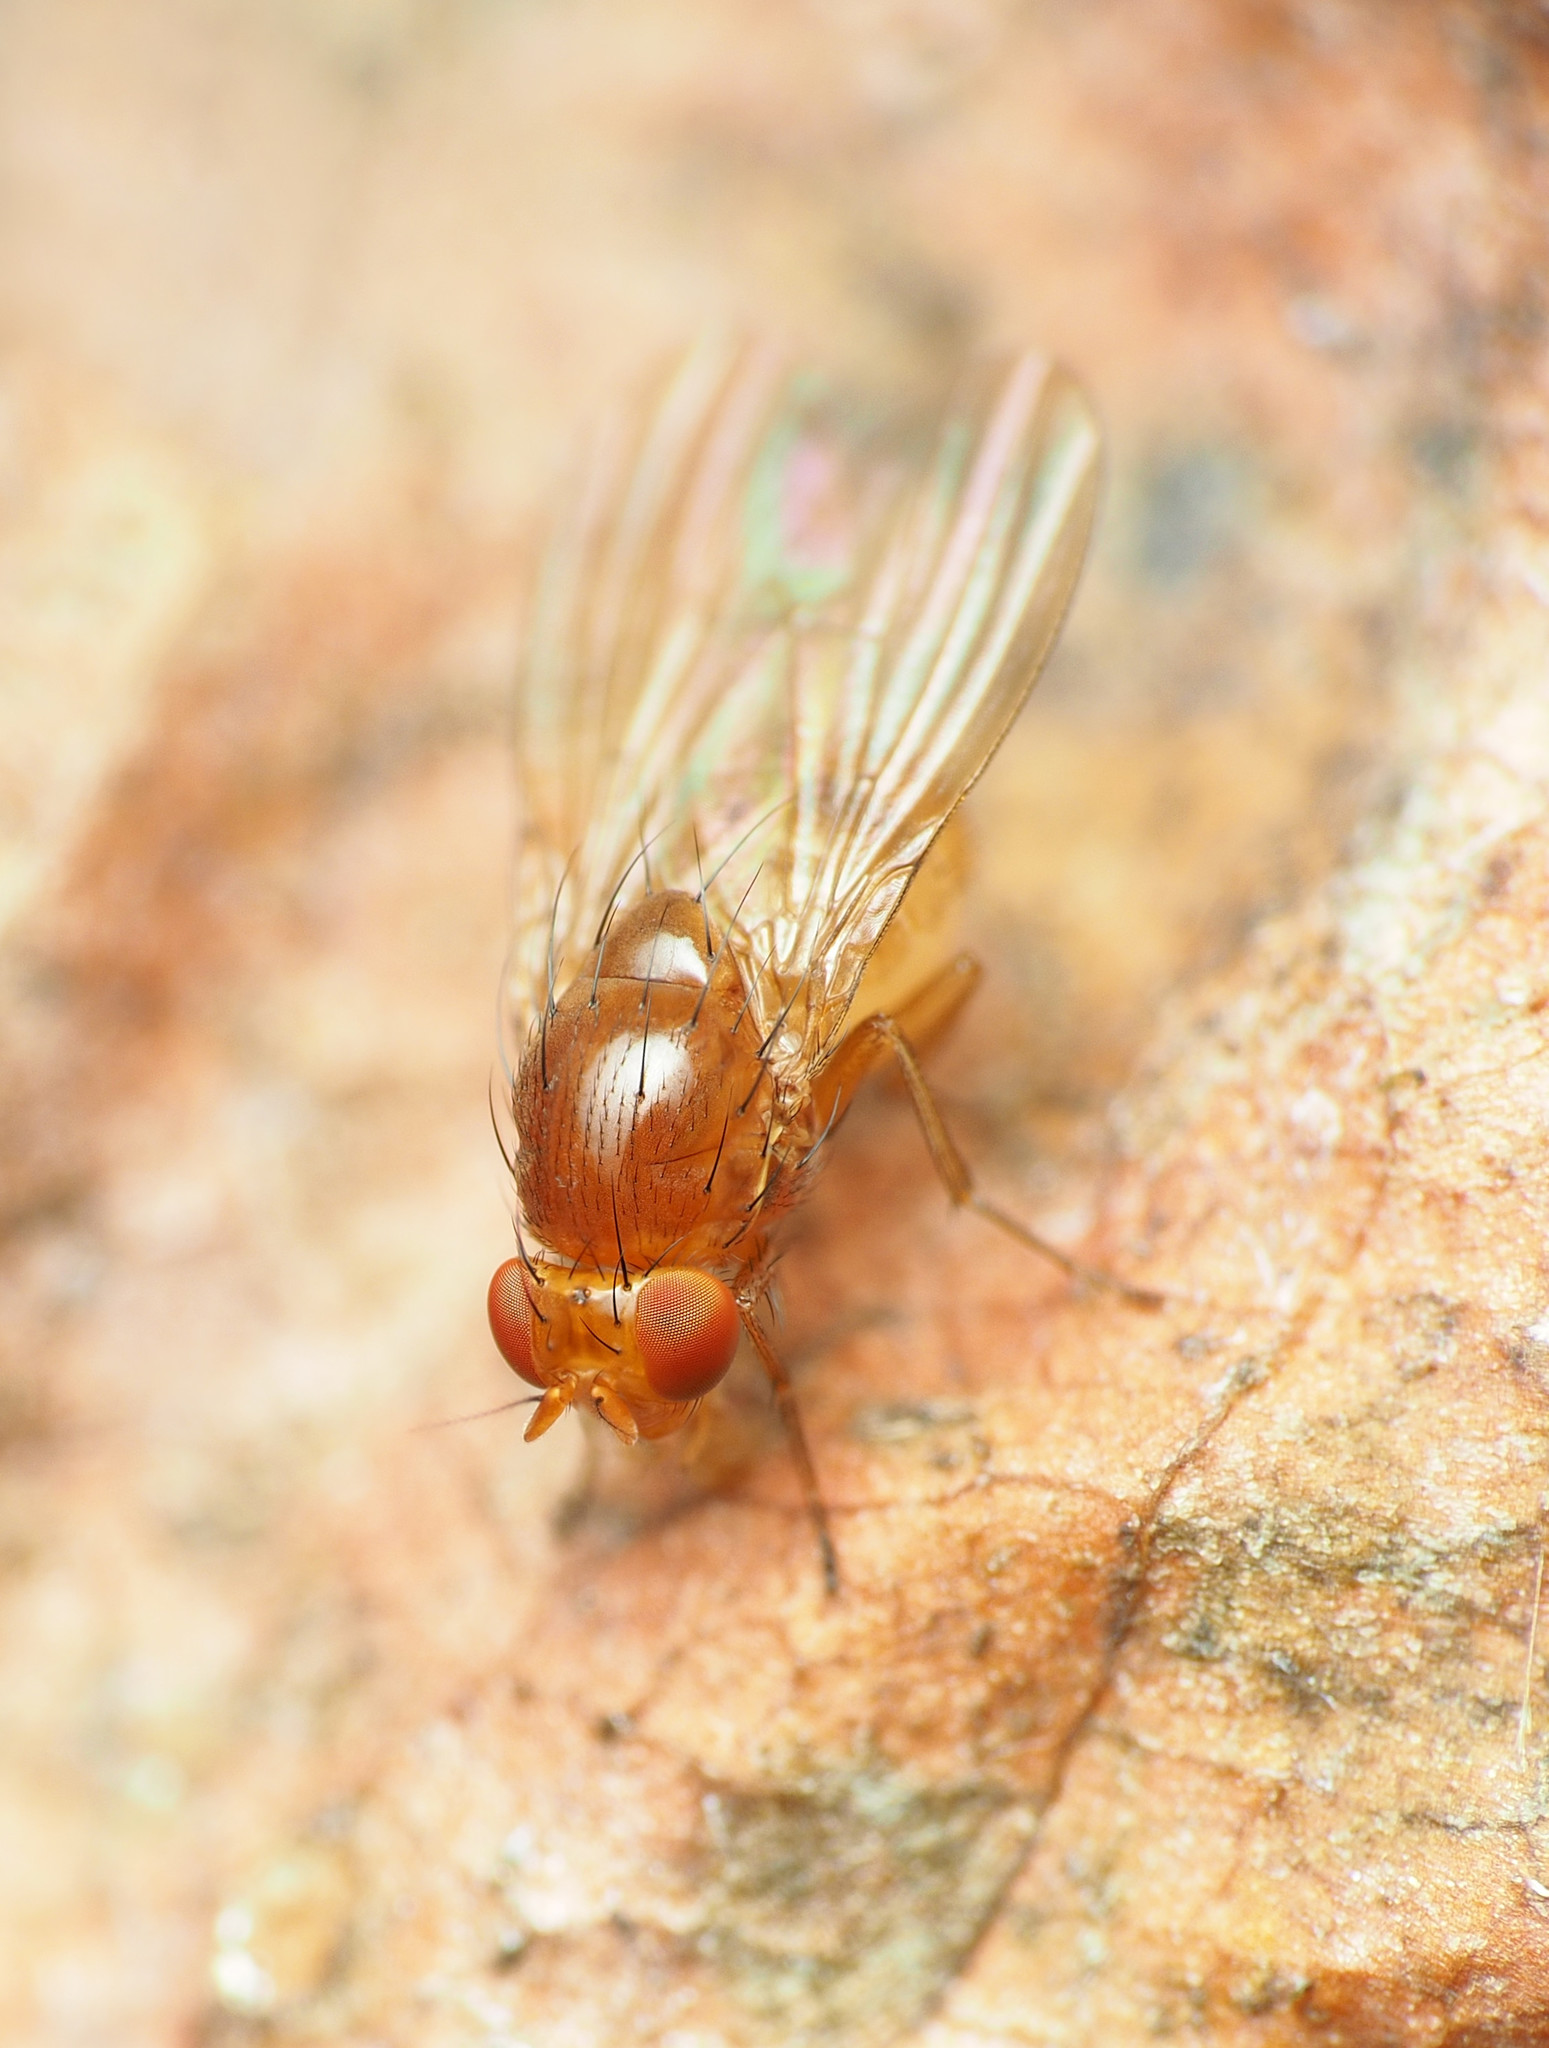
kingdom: Animalia
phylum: Arthropoda
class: Insecta
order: Diptera
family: Lauxaniidae
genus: Physoclypeus
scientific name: Physoclypeus coquilletti
